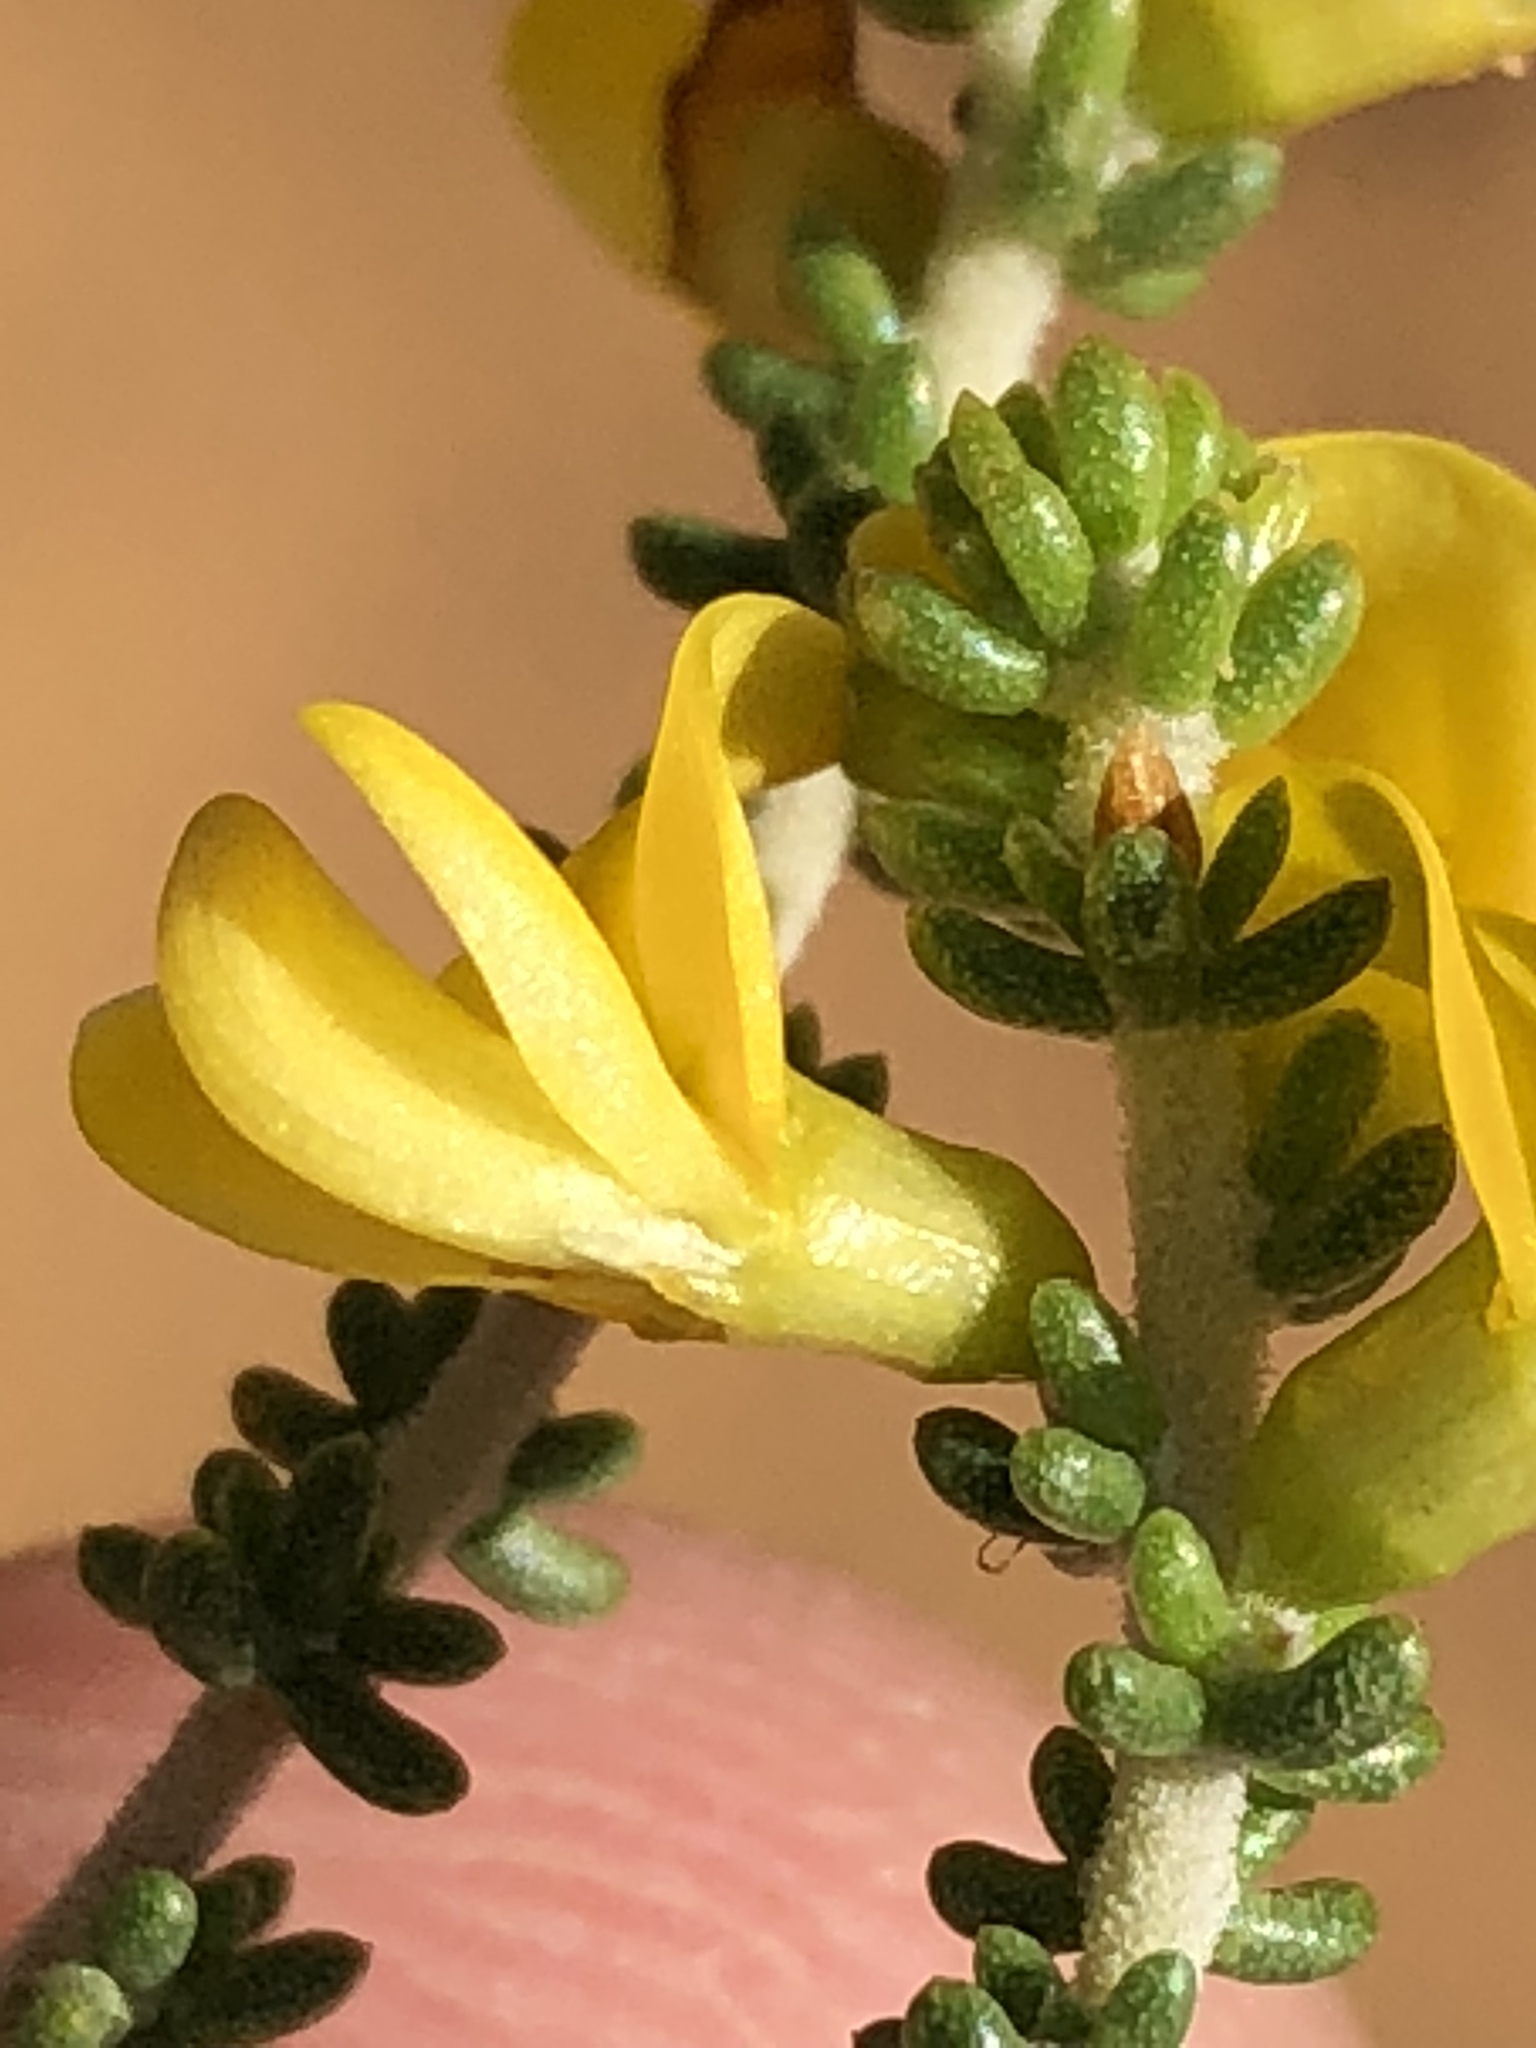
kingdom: Plantae
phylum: Tracheophyta
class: Magnoliopsida
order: Fabales
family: Fabaceae
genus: Aspalathus
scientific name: Aspalathus subtingens
